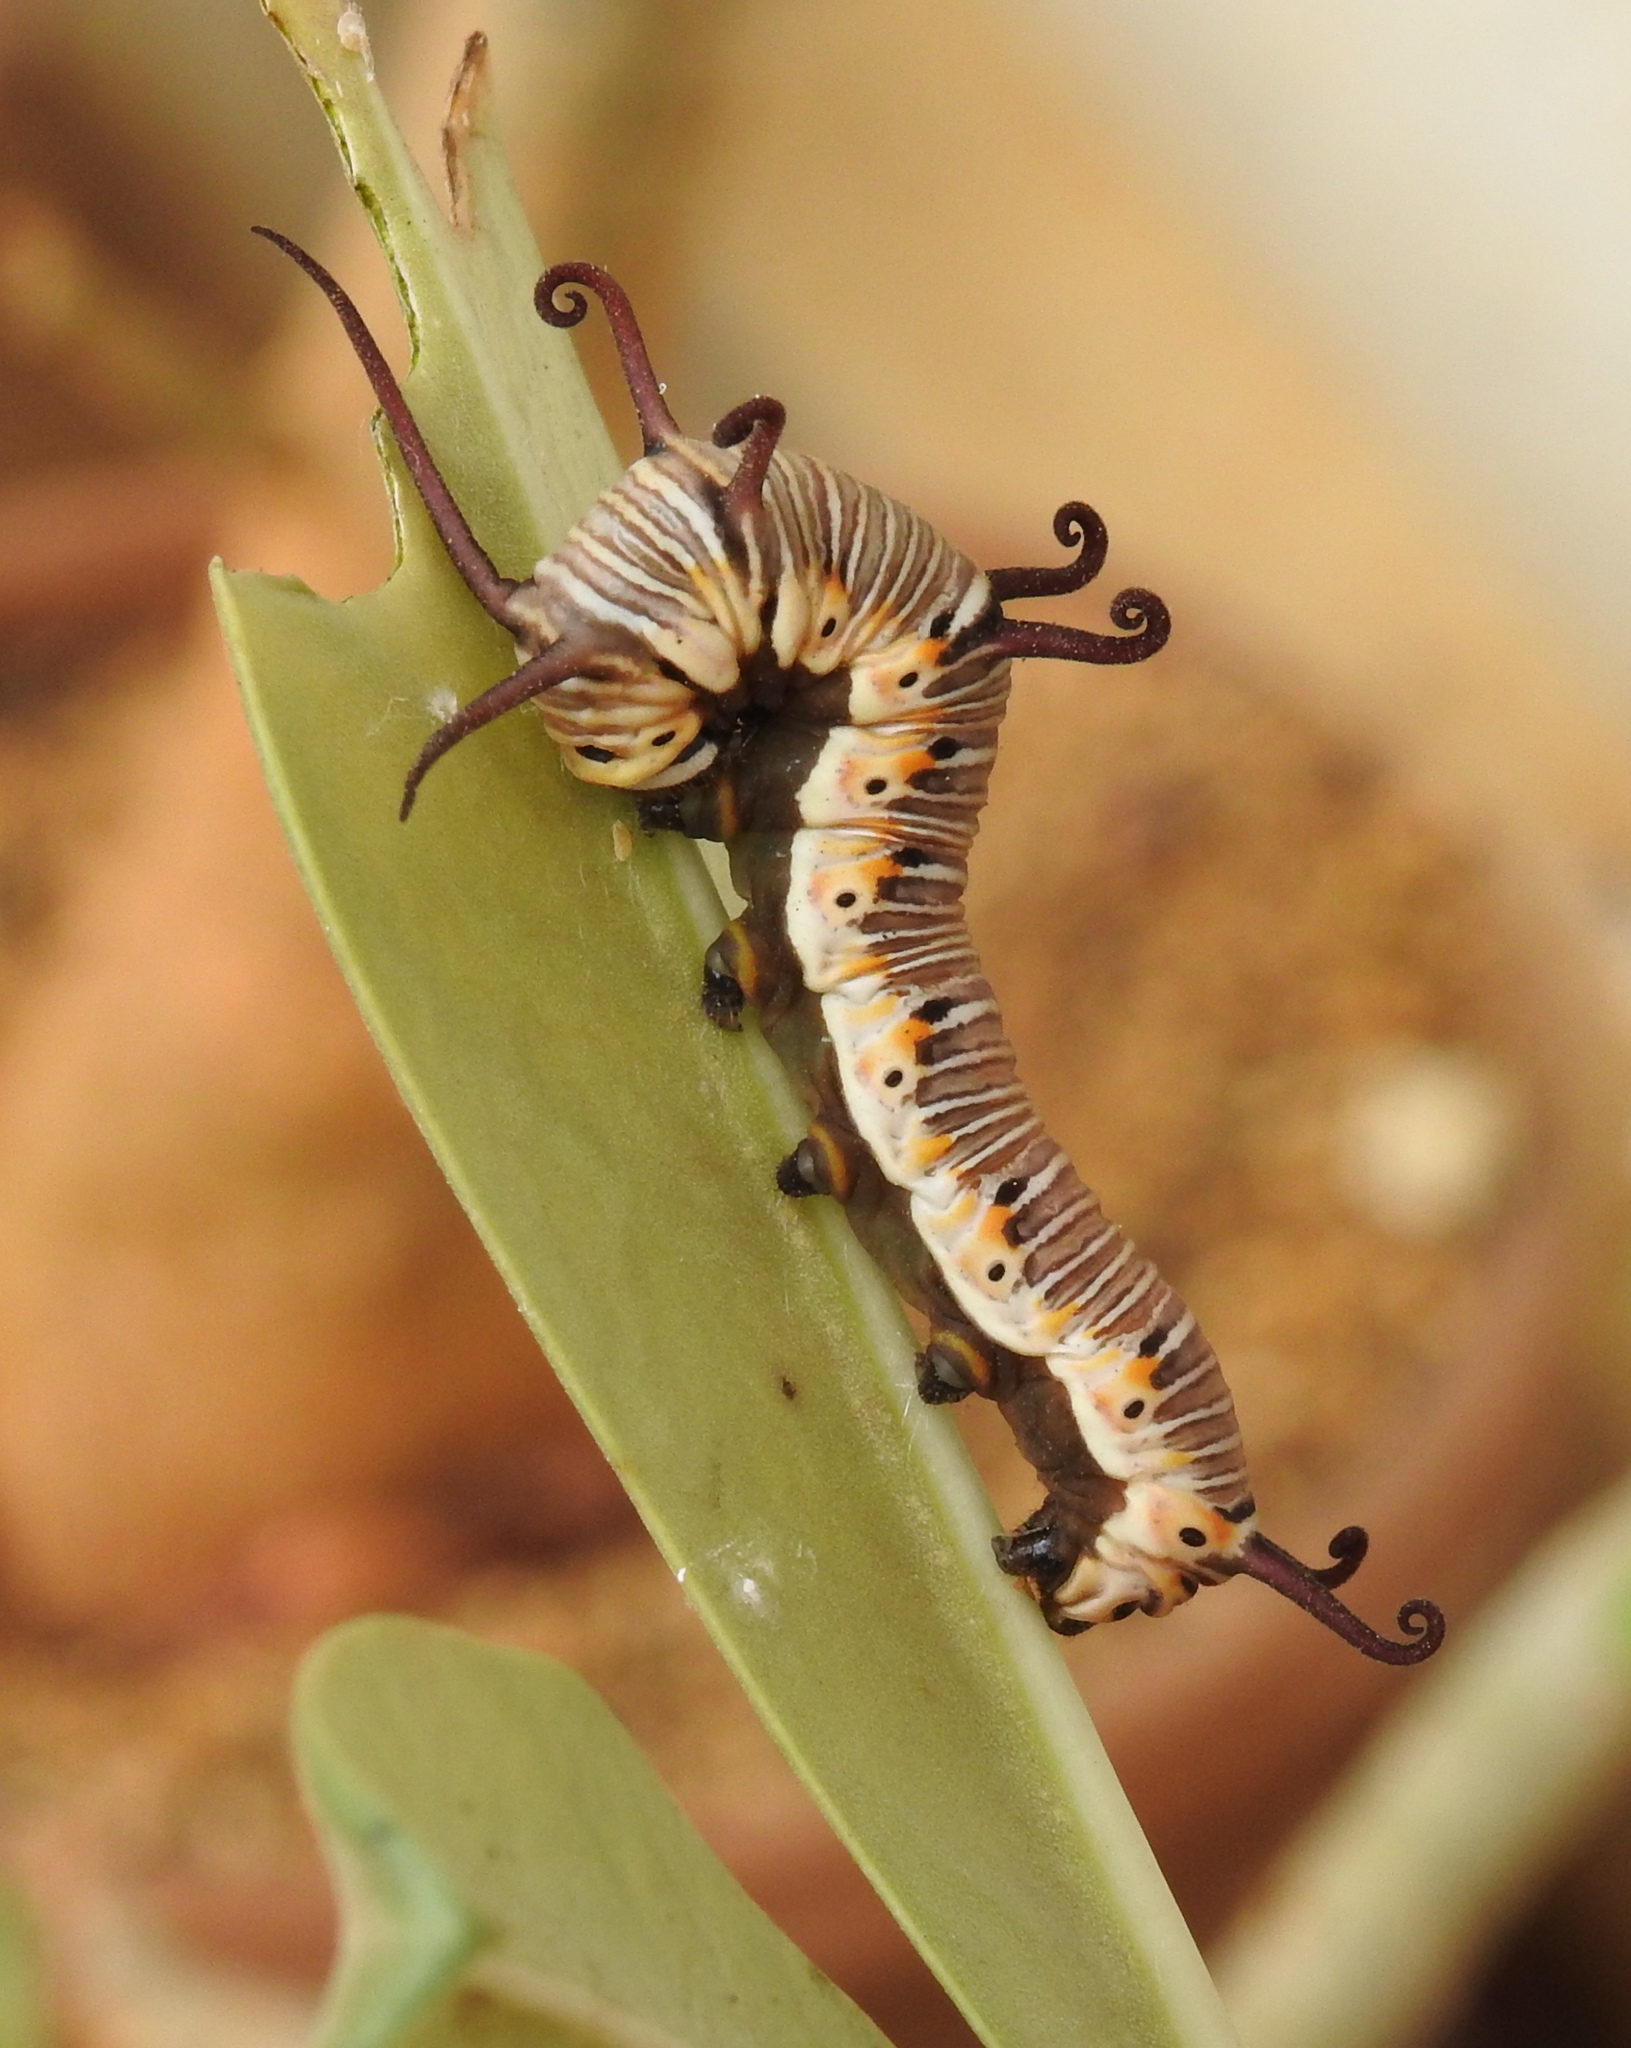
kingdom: Animalia
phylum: Arthropoda
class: Insecta
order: Lepidoptera
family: Nymphalidae
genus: Euploea
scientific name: Euploea core
